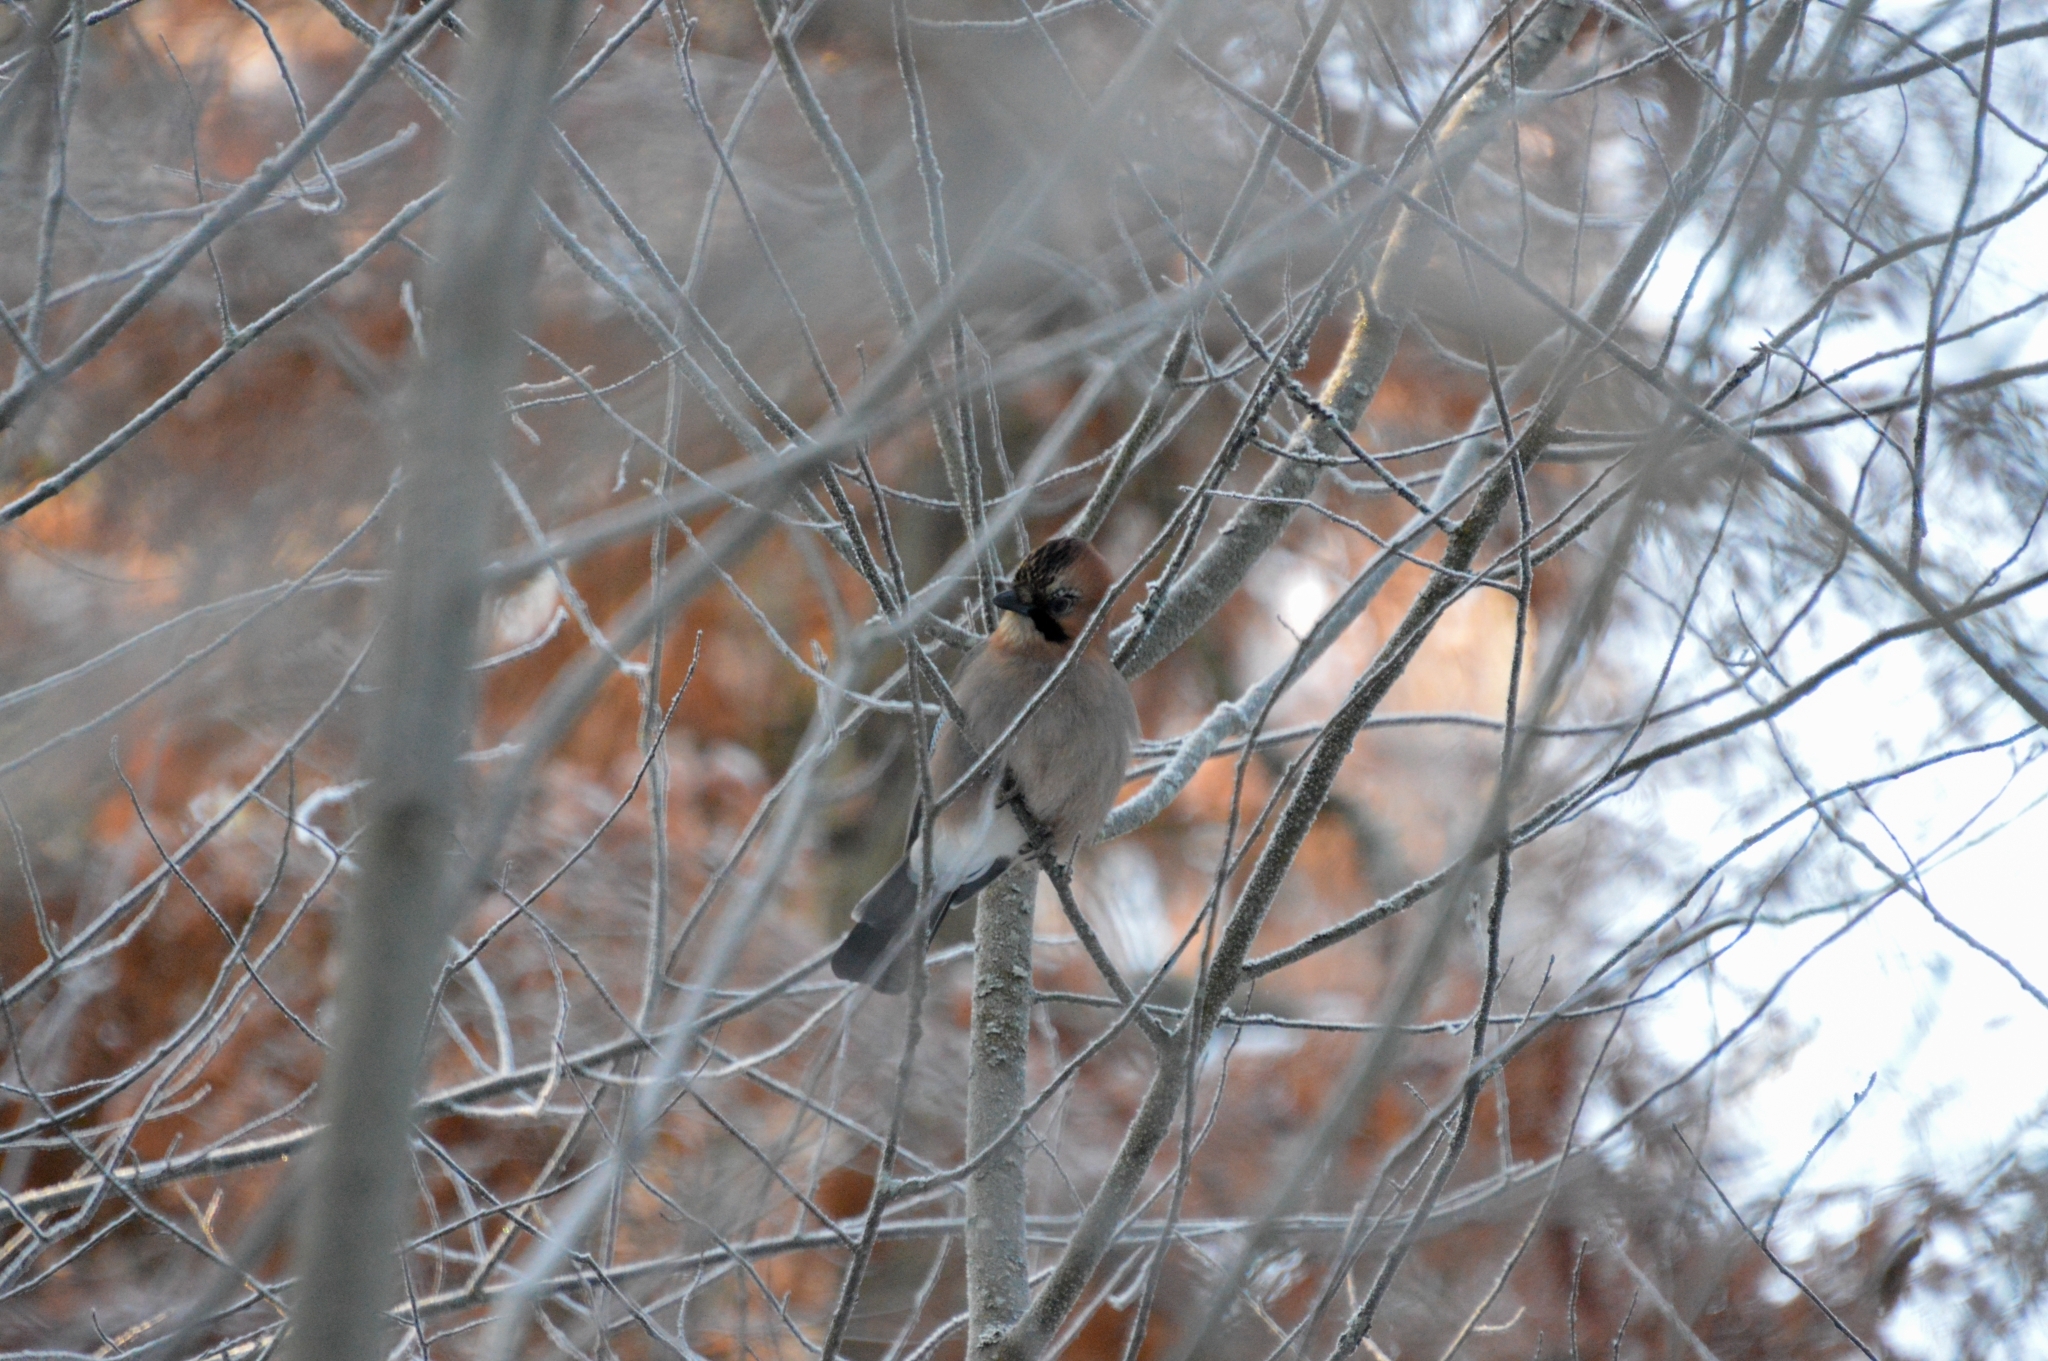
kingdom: Animalia
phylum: Chordata
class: Aves
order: Passeriformes
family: Corvidae
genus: Garrulus
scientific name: Garrulus glandarius
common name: Eurasian jay
